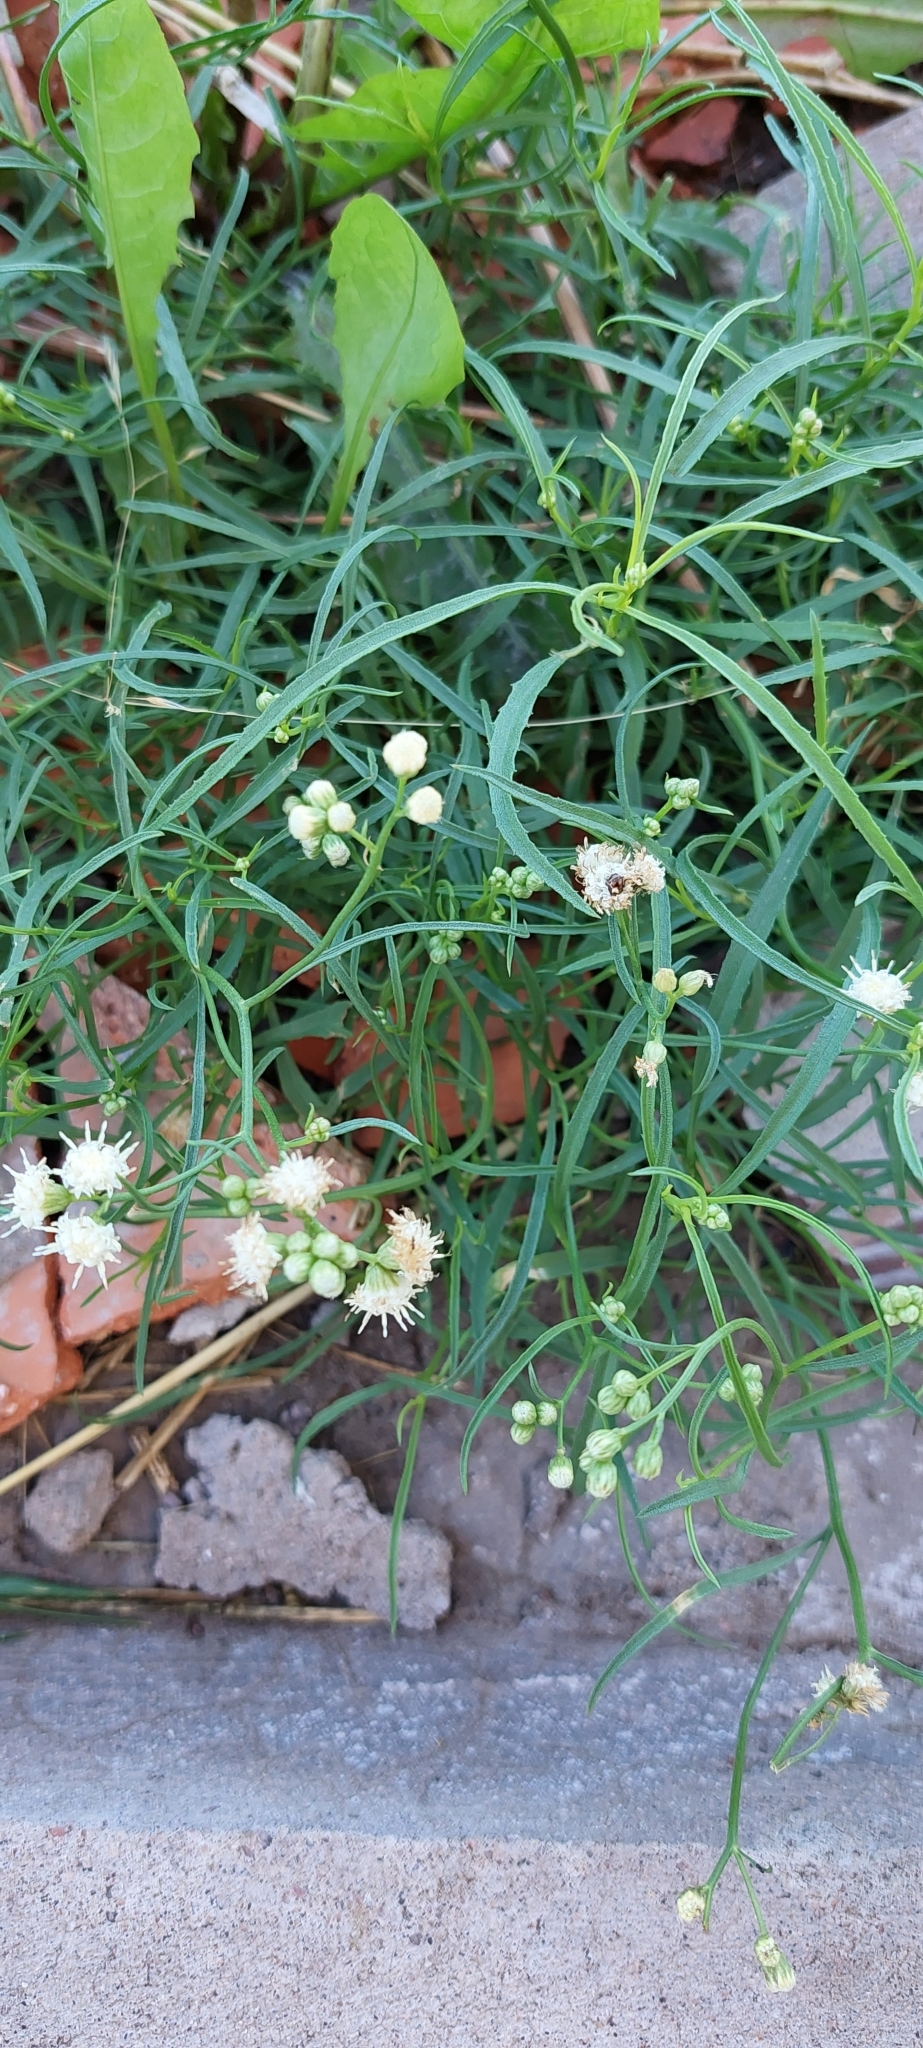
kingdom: Plantae
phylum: Tracheophyta
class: Magnoliopsida
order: Asterales
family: Asteraceae
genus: Baccharis
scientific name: Baccharis glutinosa
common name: Saltmarsh baccharis
